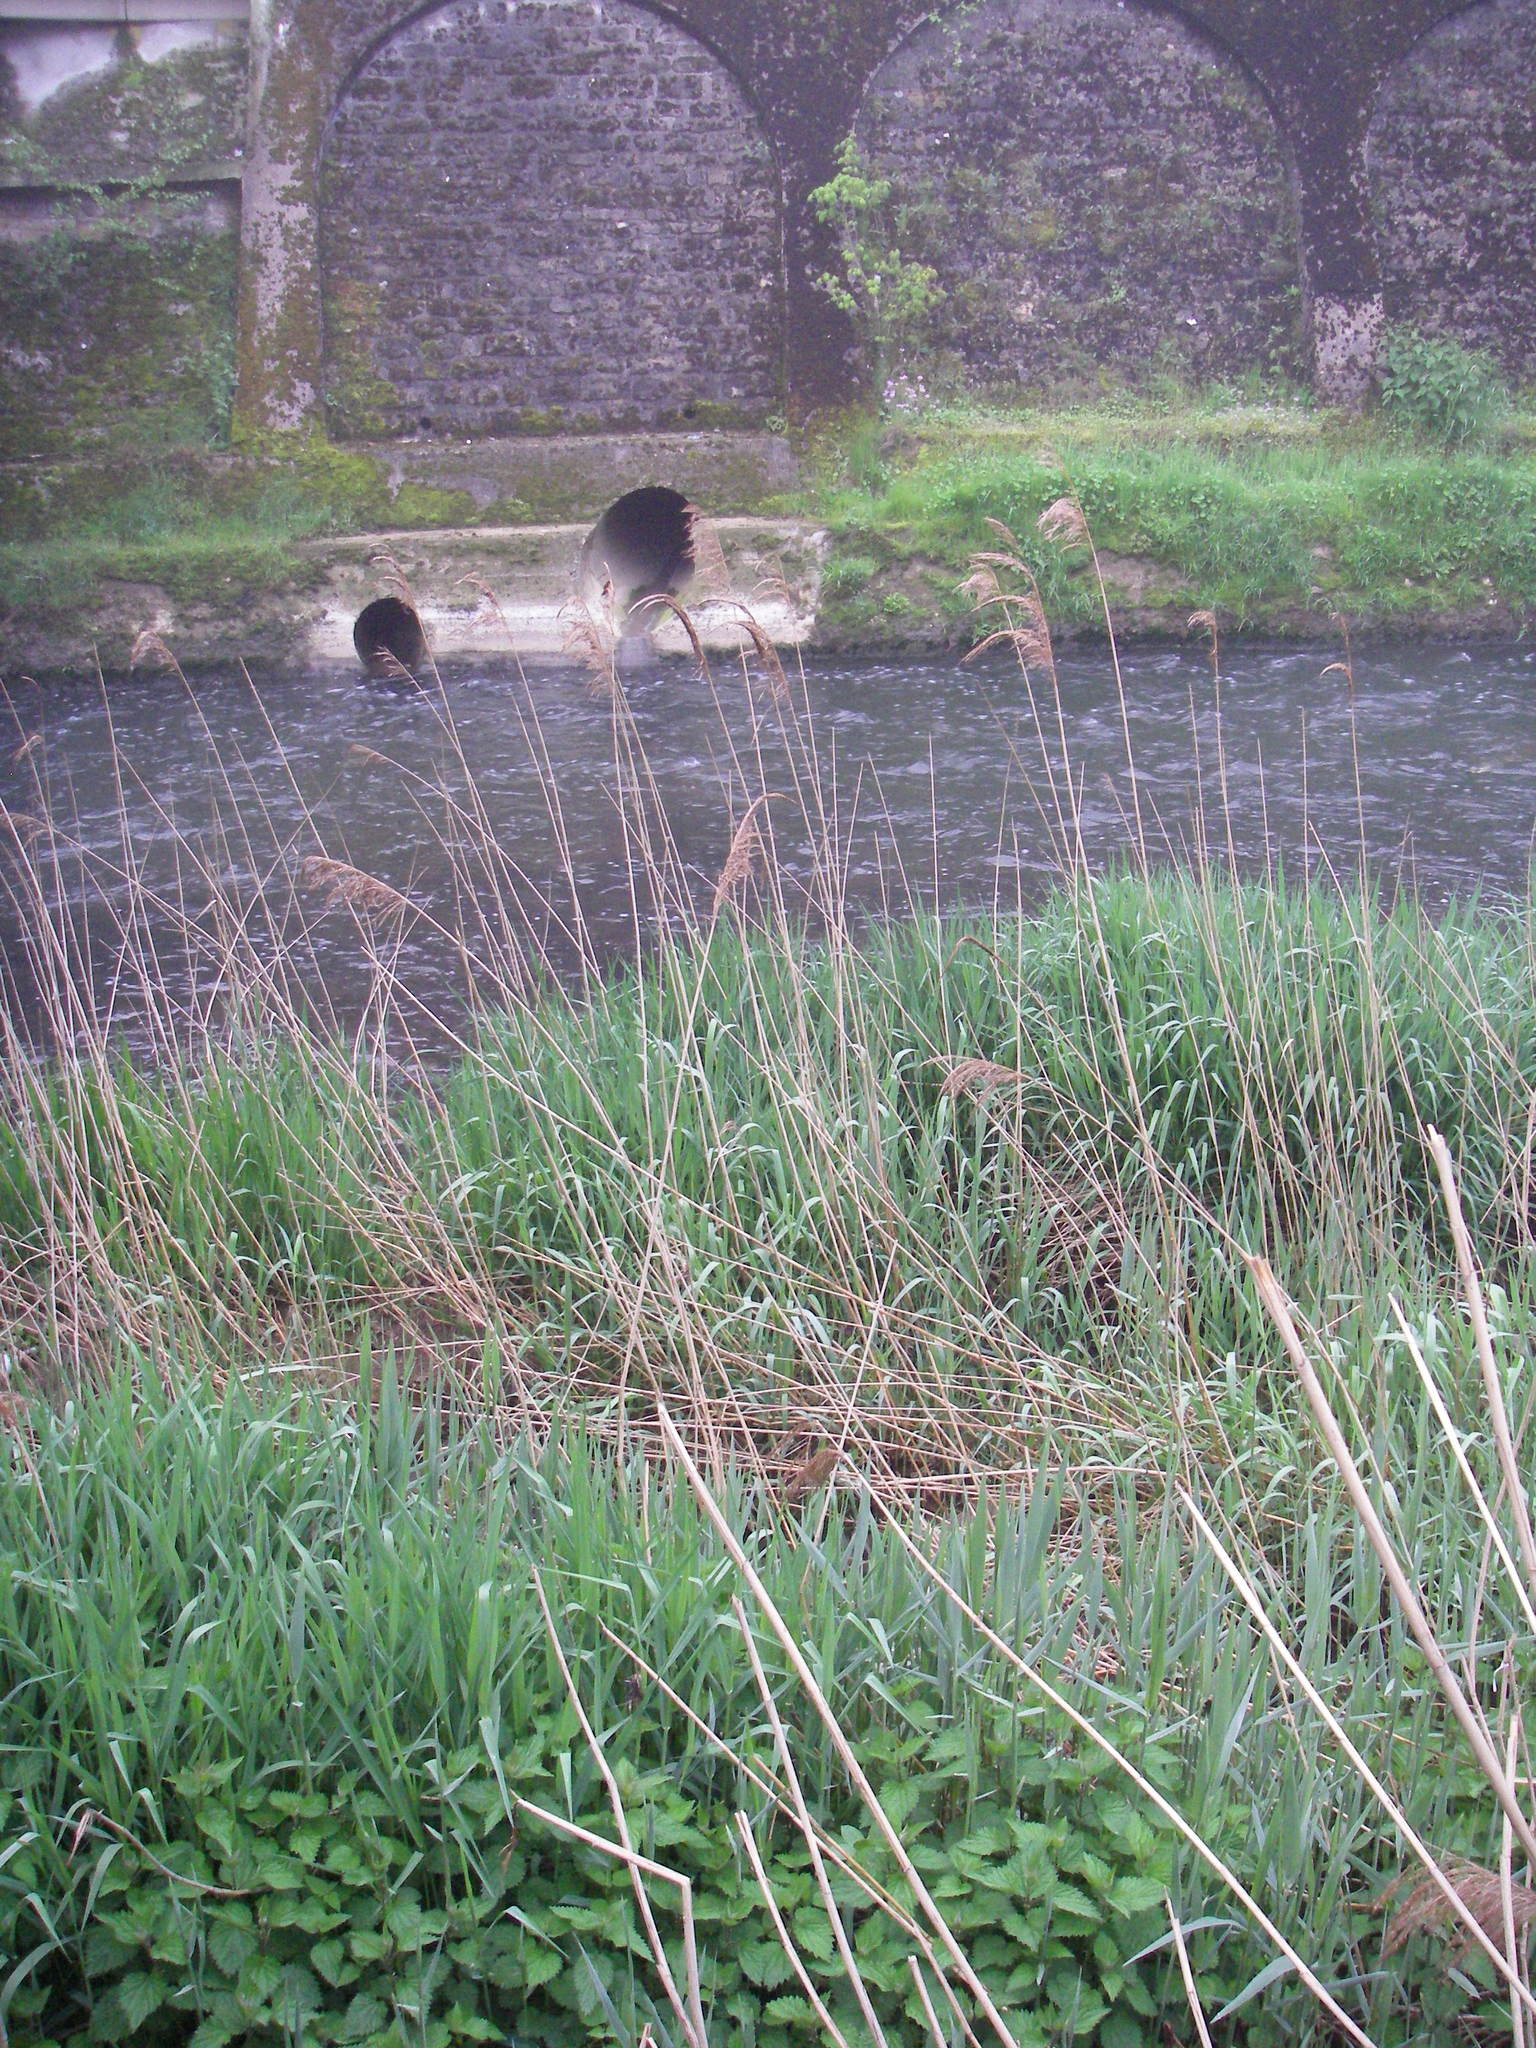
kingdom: Plantae
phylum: Tracheophyta
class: Liliopsida
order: Poales
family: Poaceae
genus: Phragmites
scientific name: Phragmites australis
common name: Common reed
